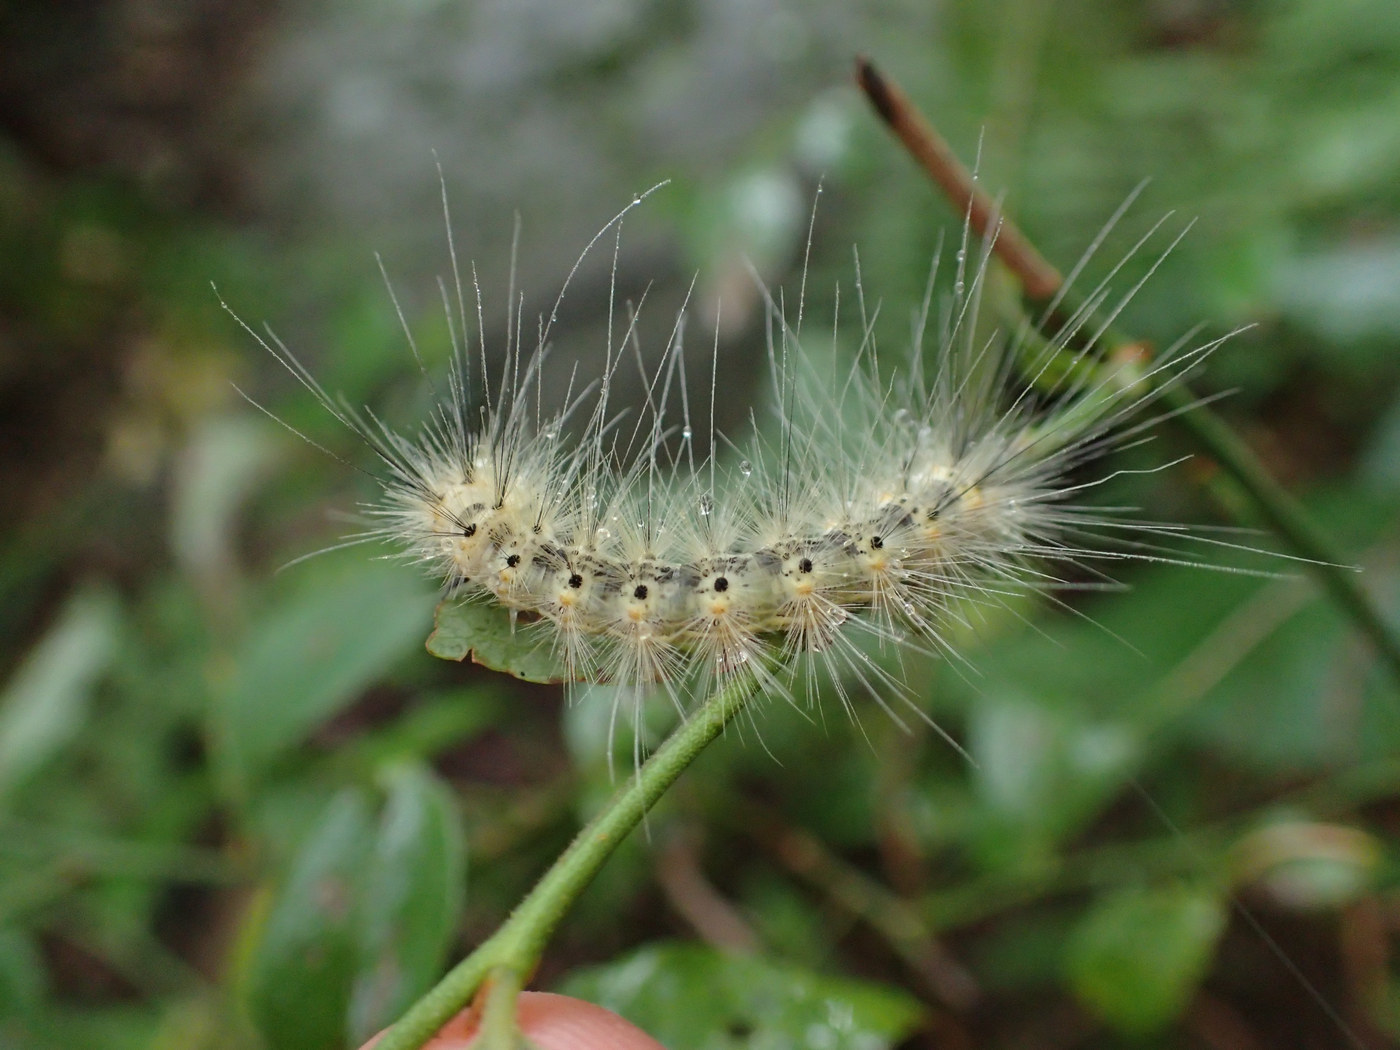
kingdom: Animalia
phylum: Arthropoda
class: Insecta
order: Lepidoptera
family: Erebidae
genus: Hyphantria
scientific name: Hyphantria cunea
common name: American white moth
